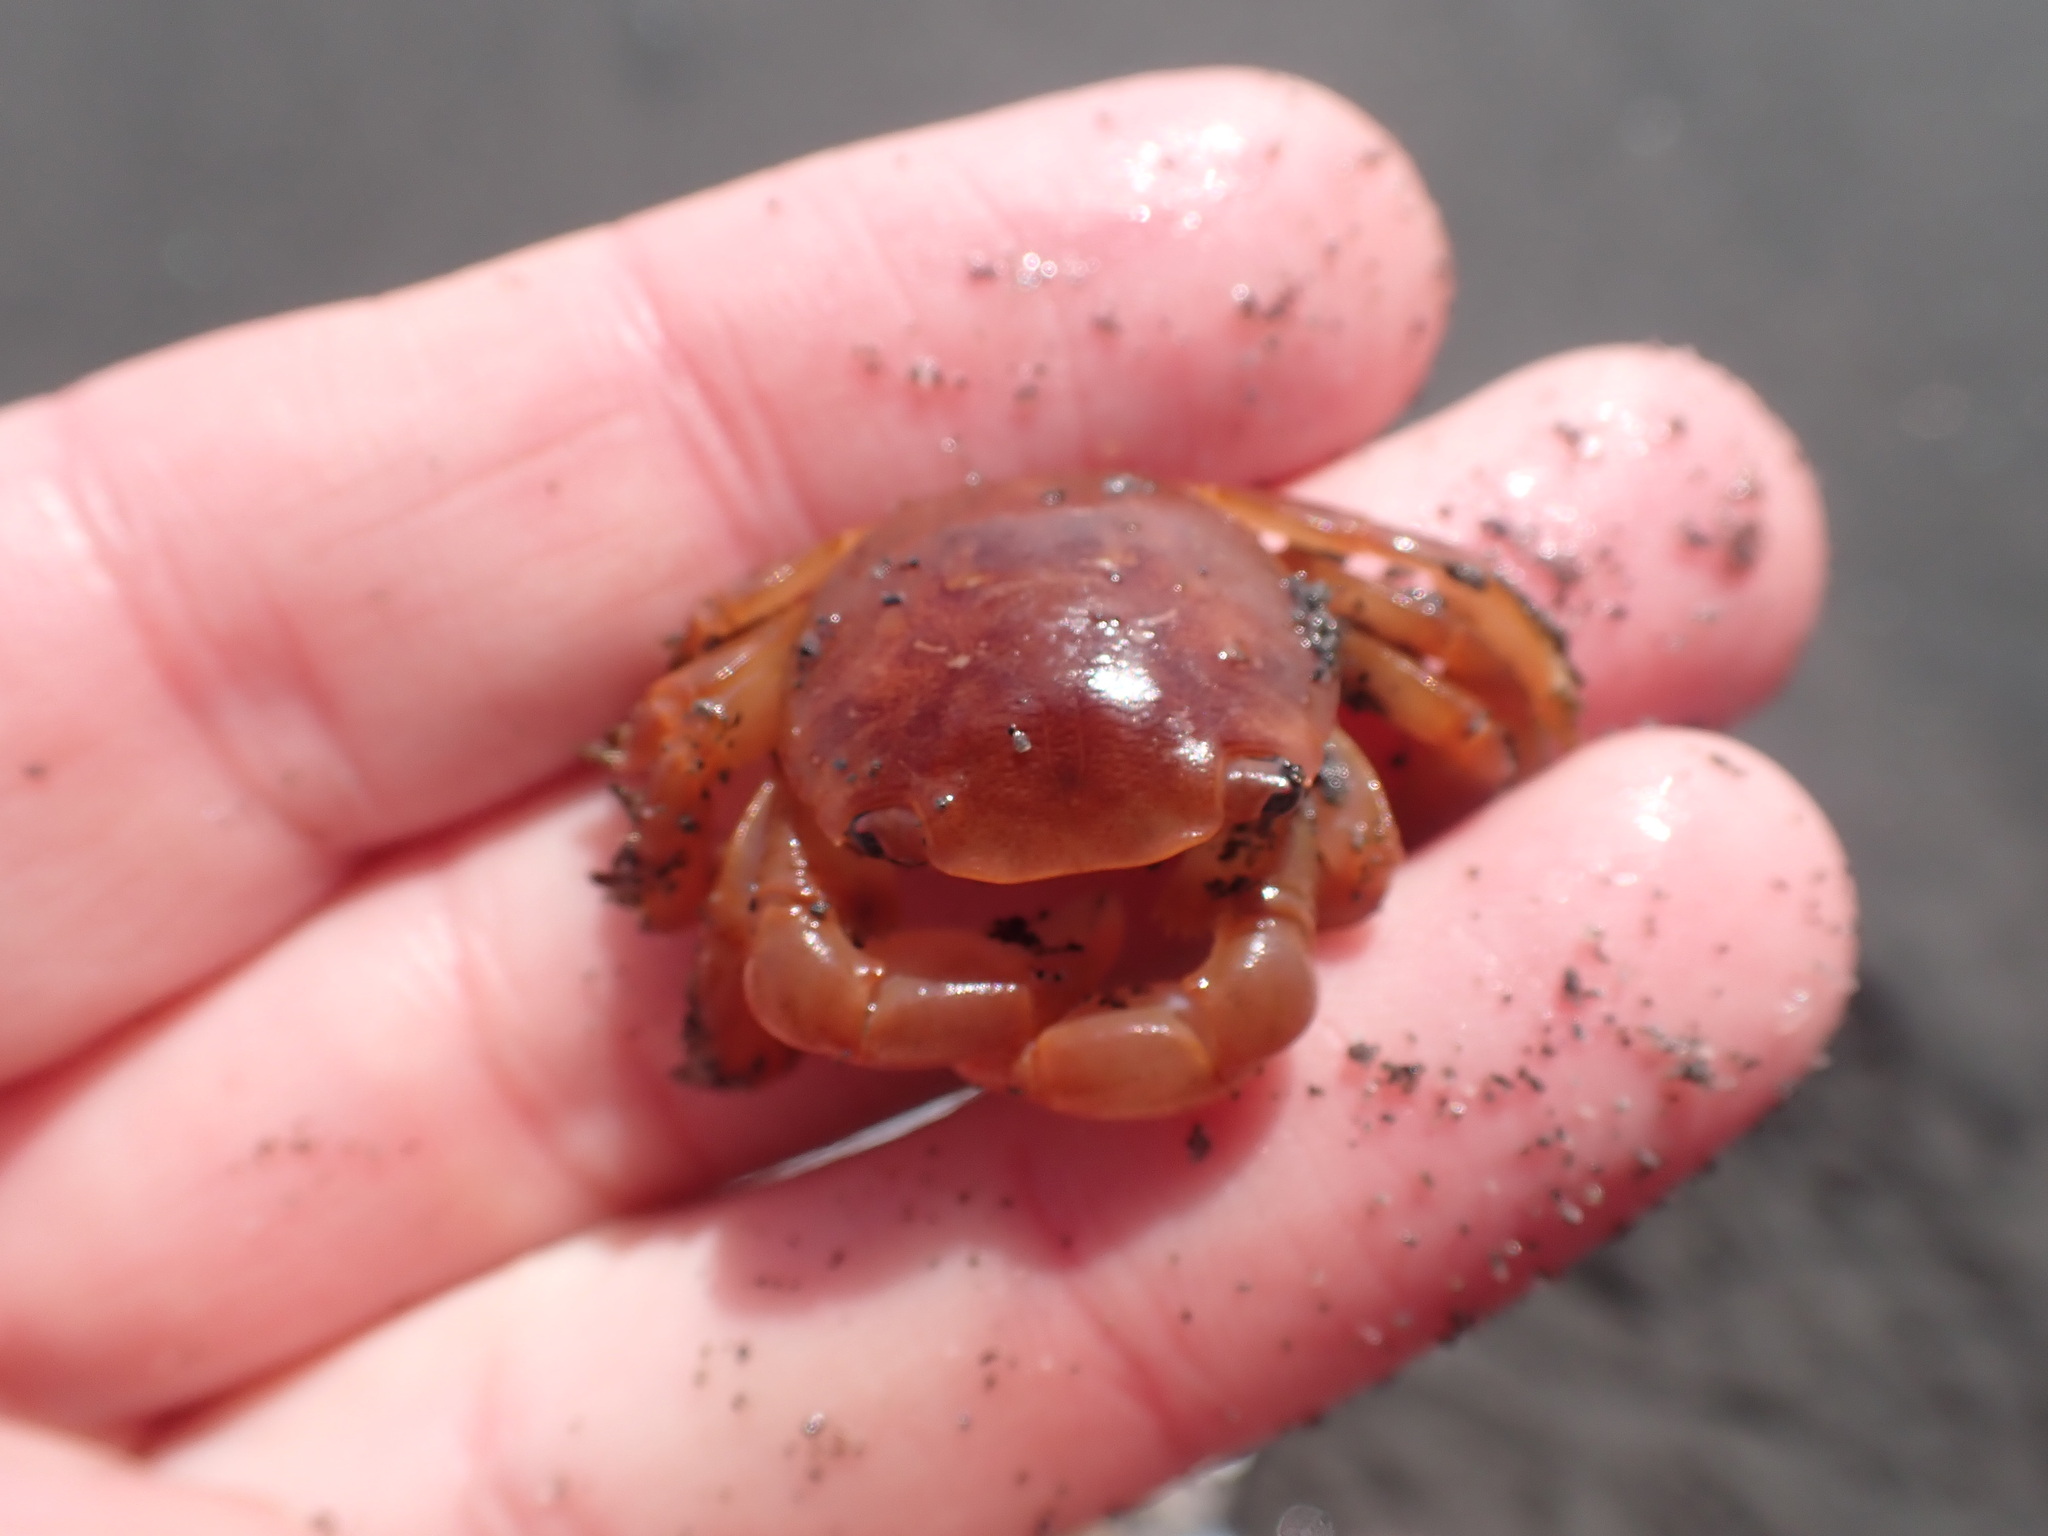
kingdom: Animalia
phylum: Arthropoda
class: Malacostraca
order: Decapoda
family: Grapsidae
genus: Planes
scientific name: Planes minutus
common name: Gulf weed crab
